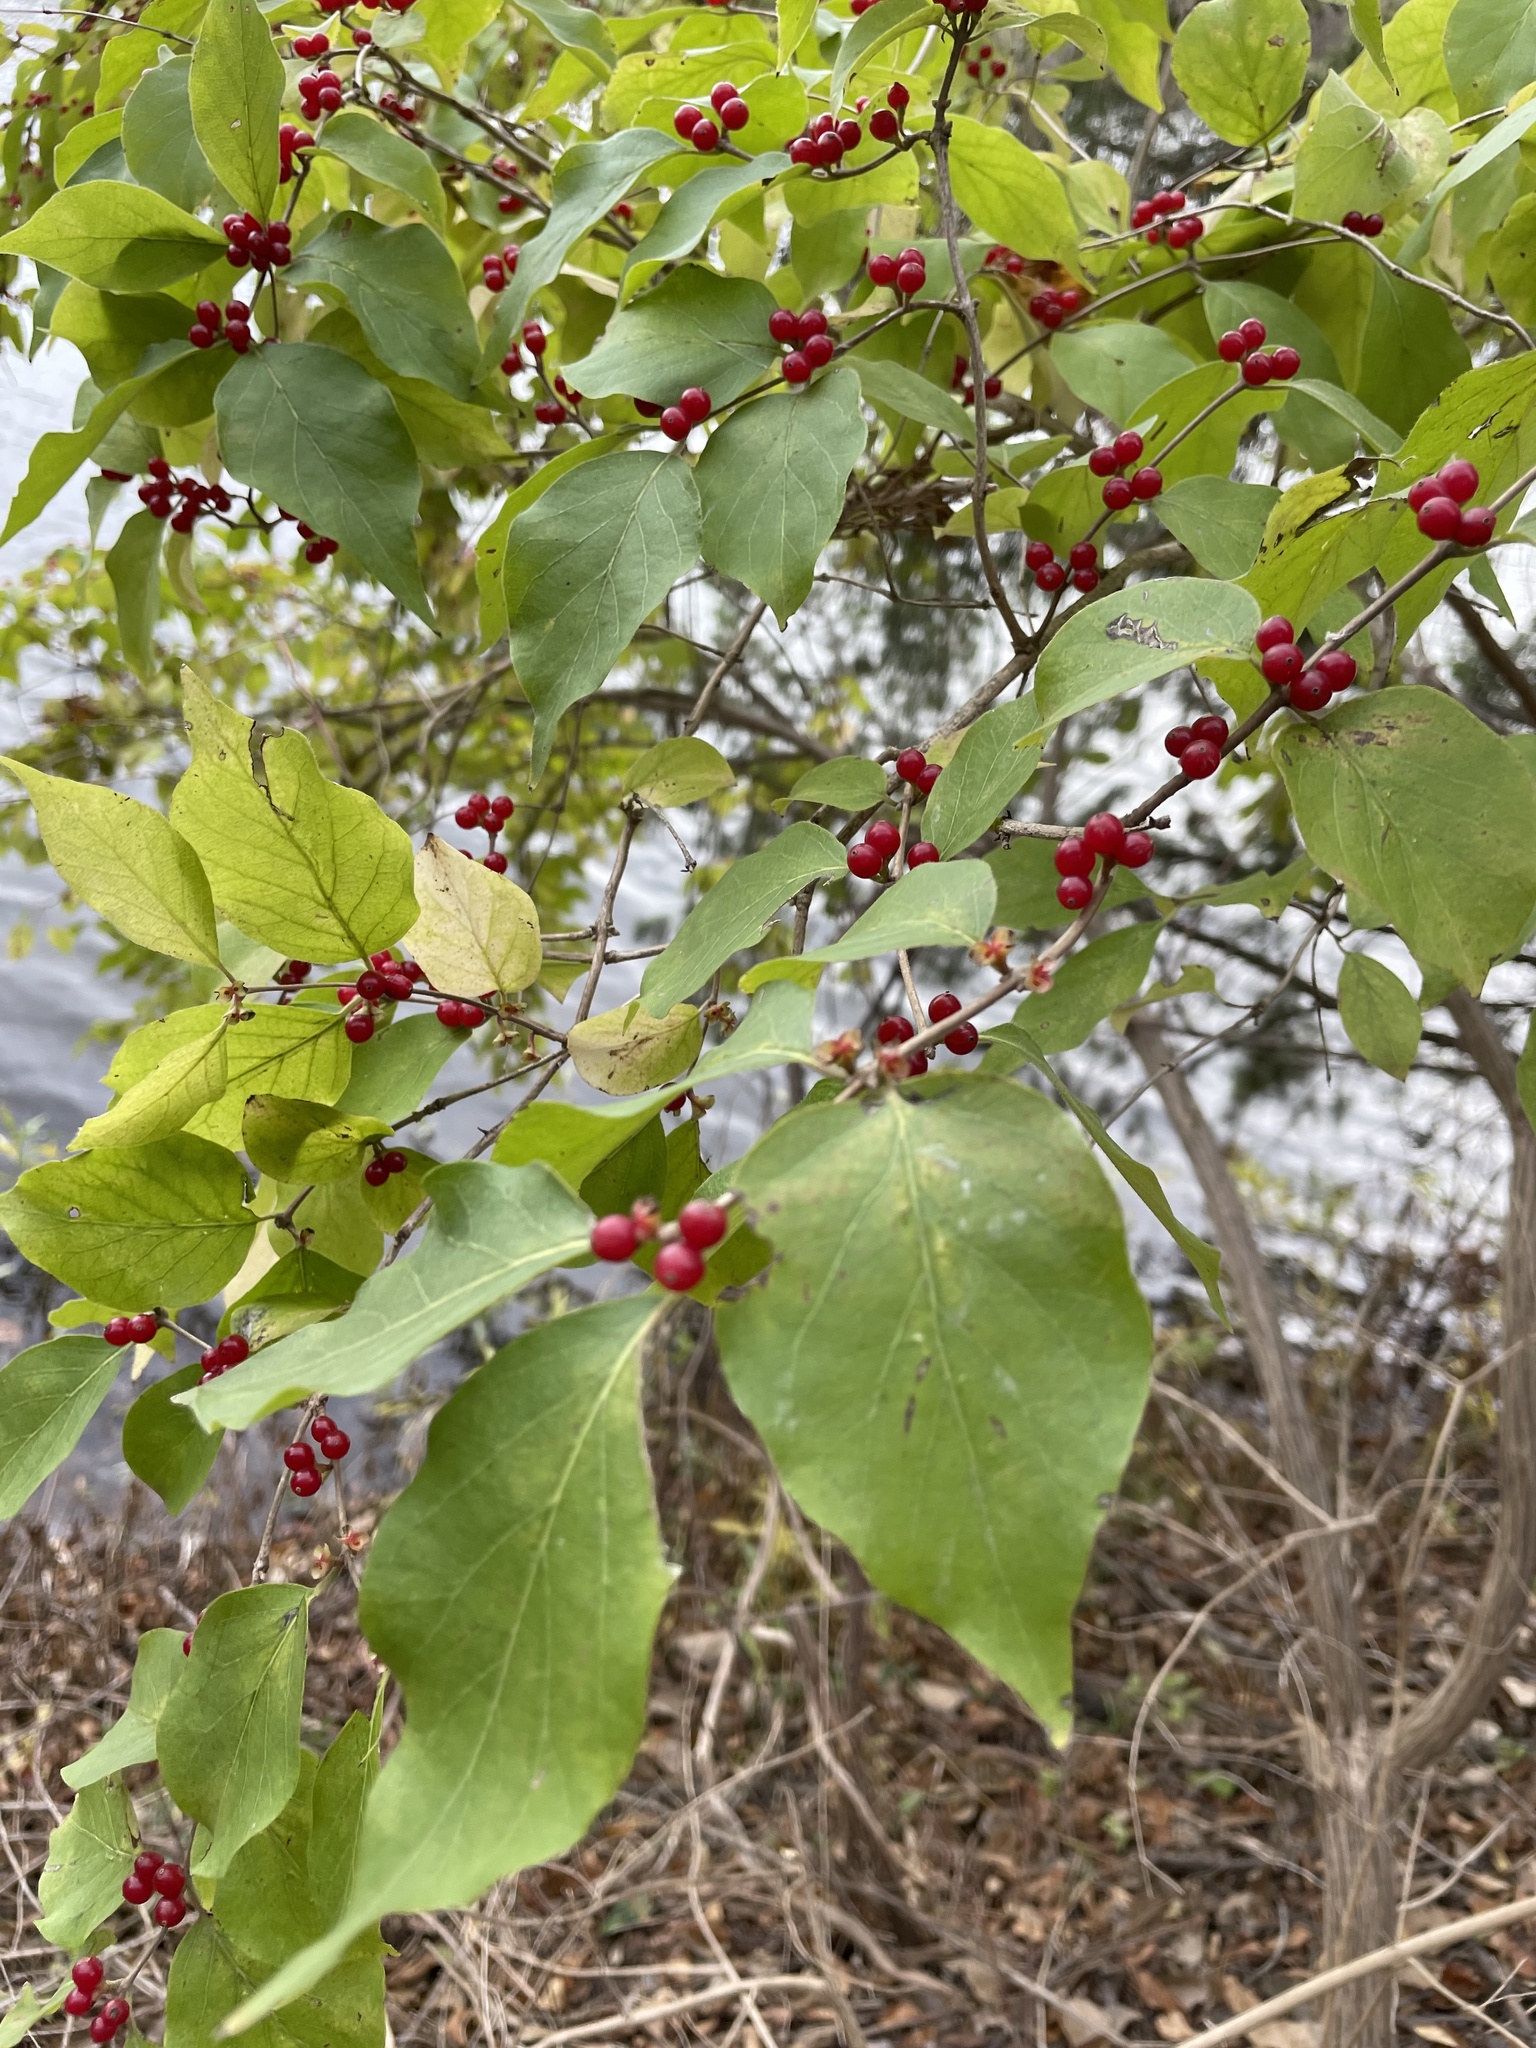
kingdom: Plantae
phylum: Tracheophyta
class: Magnoliopsida
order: Dipsacales
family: Caprifoliaceae
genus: Lonicera
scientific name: Lonicera maackii
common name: Amur honeysuckle
